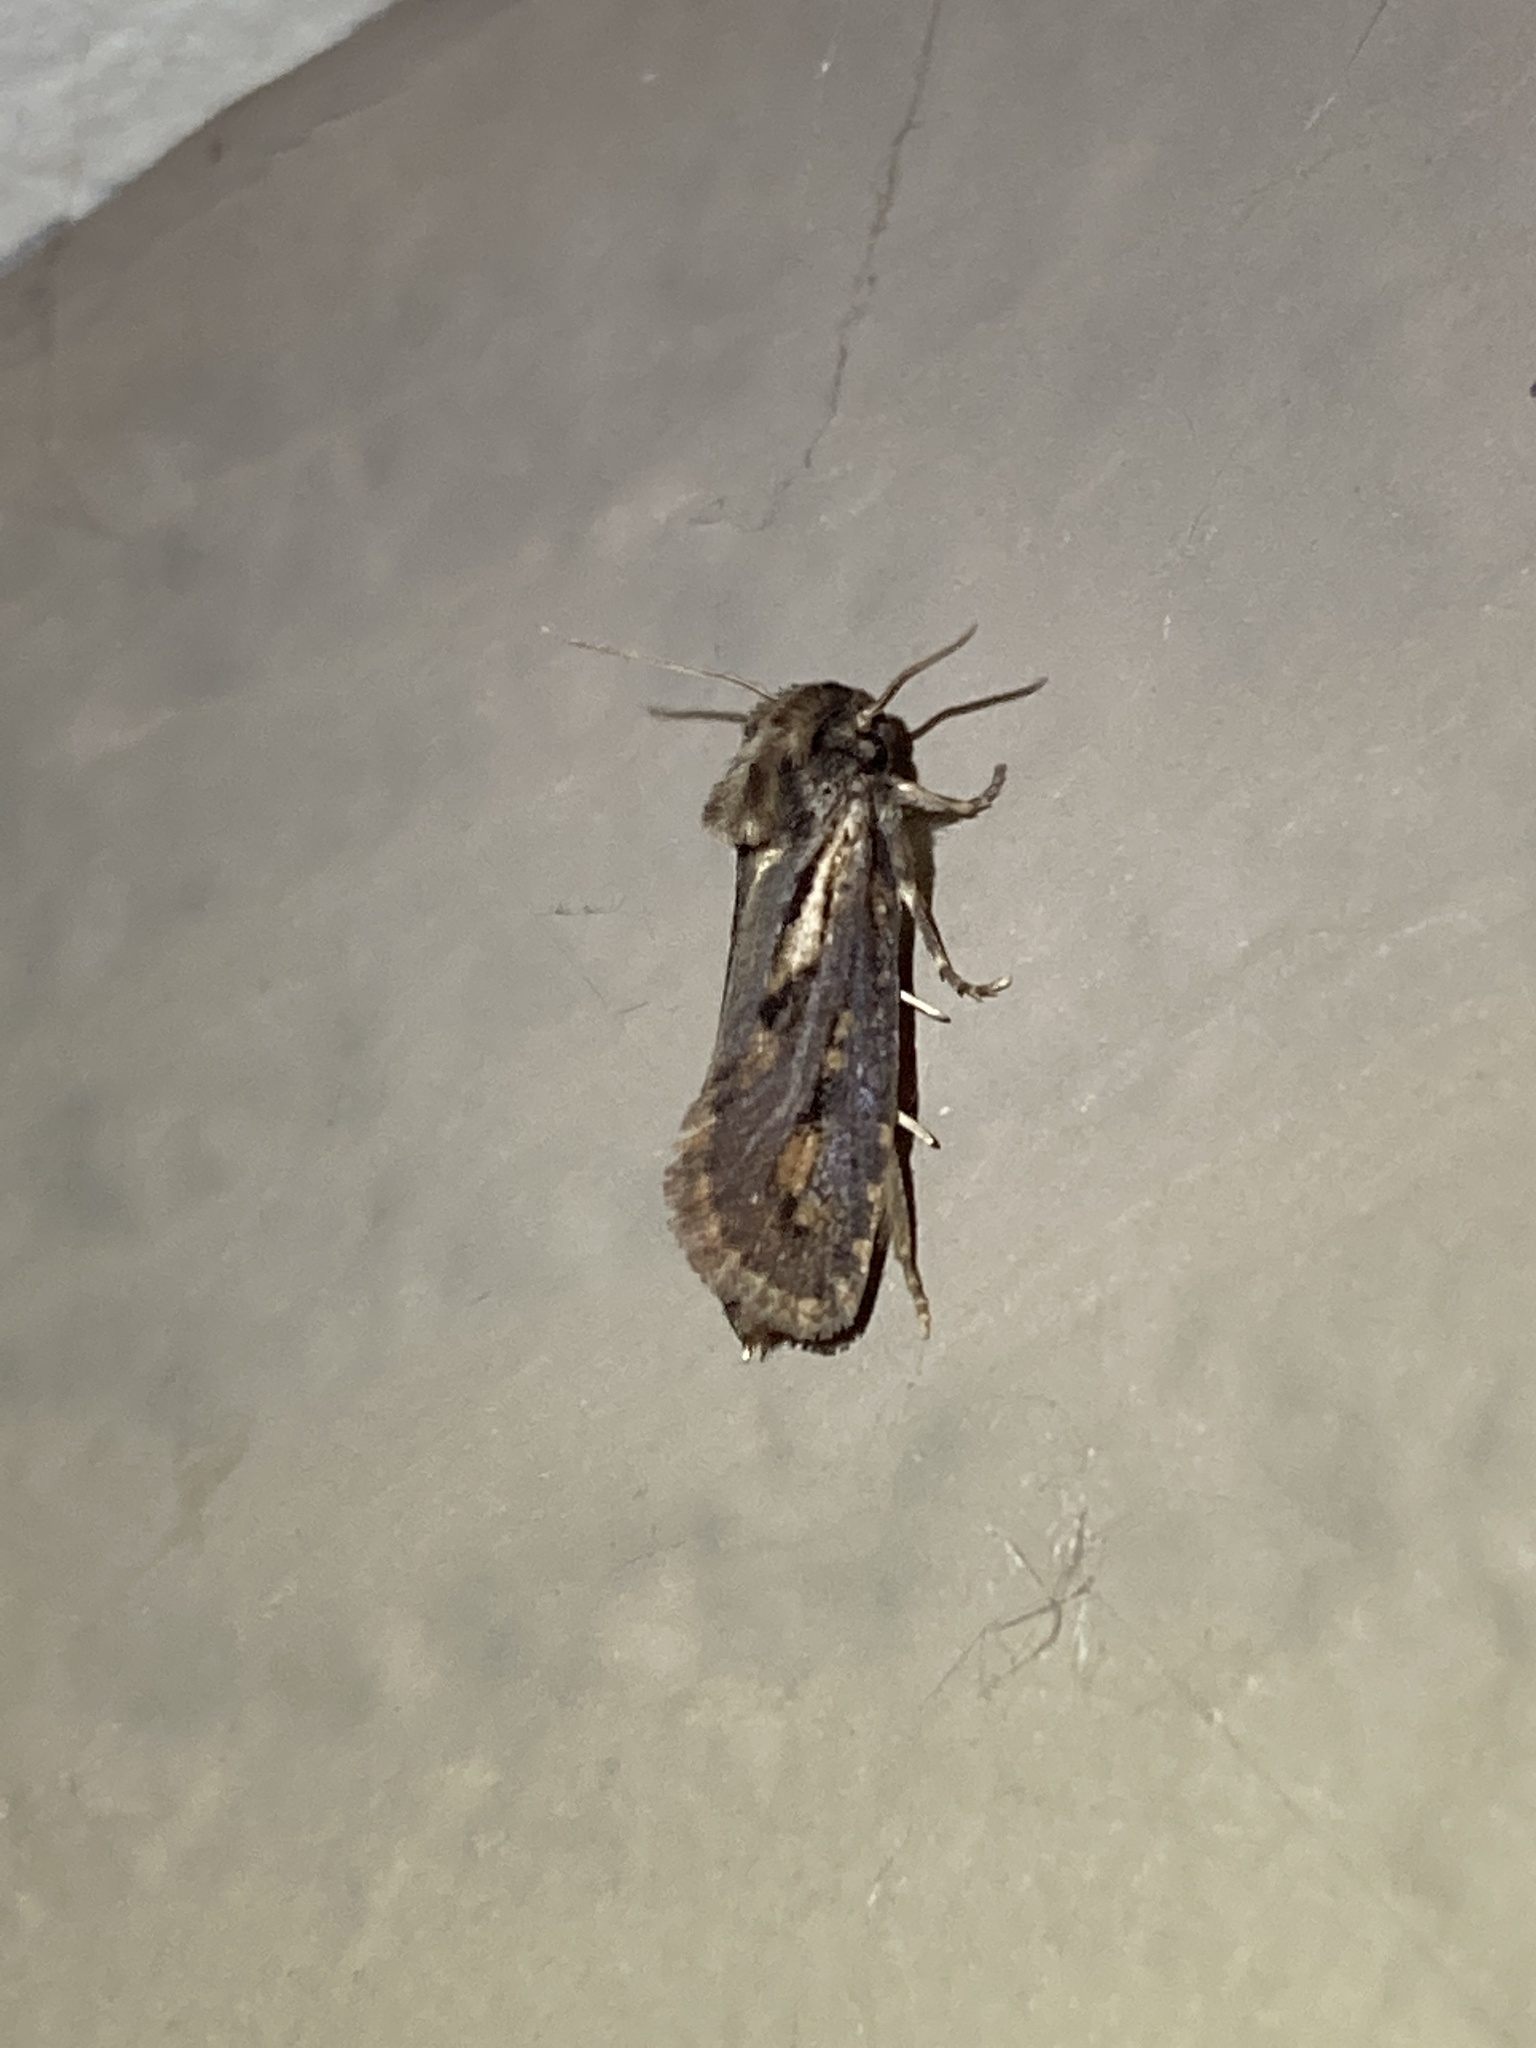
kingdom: Animalia
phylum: Arthropoda
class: Insecta
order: Lepidoptera
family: Tineidae
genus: Acrolophus
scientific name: Acrolophus popeanella
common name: Clemens' grass tubeworm moth
